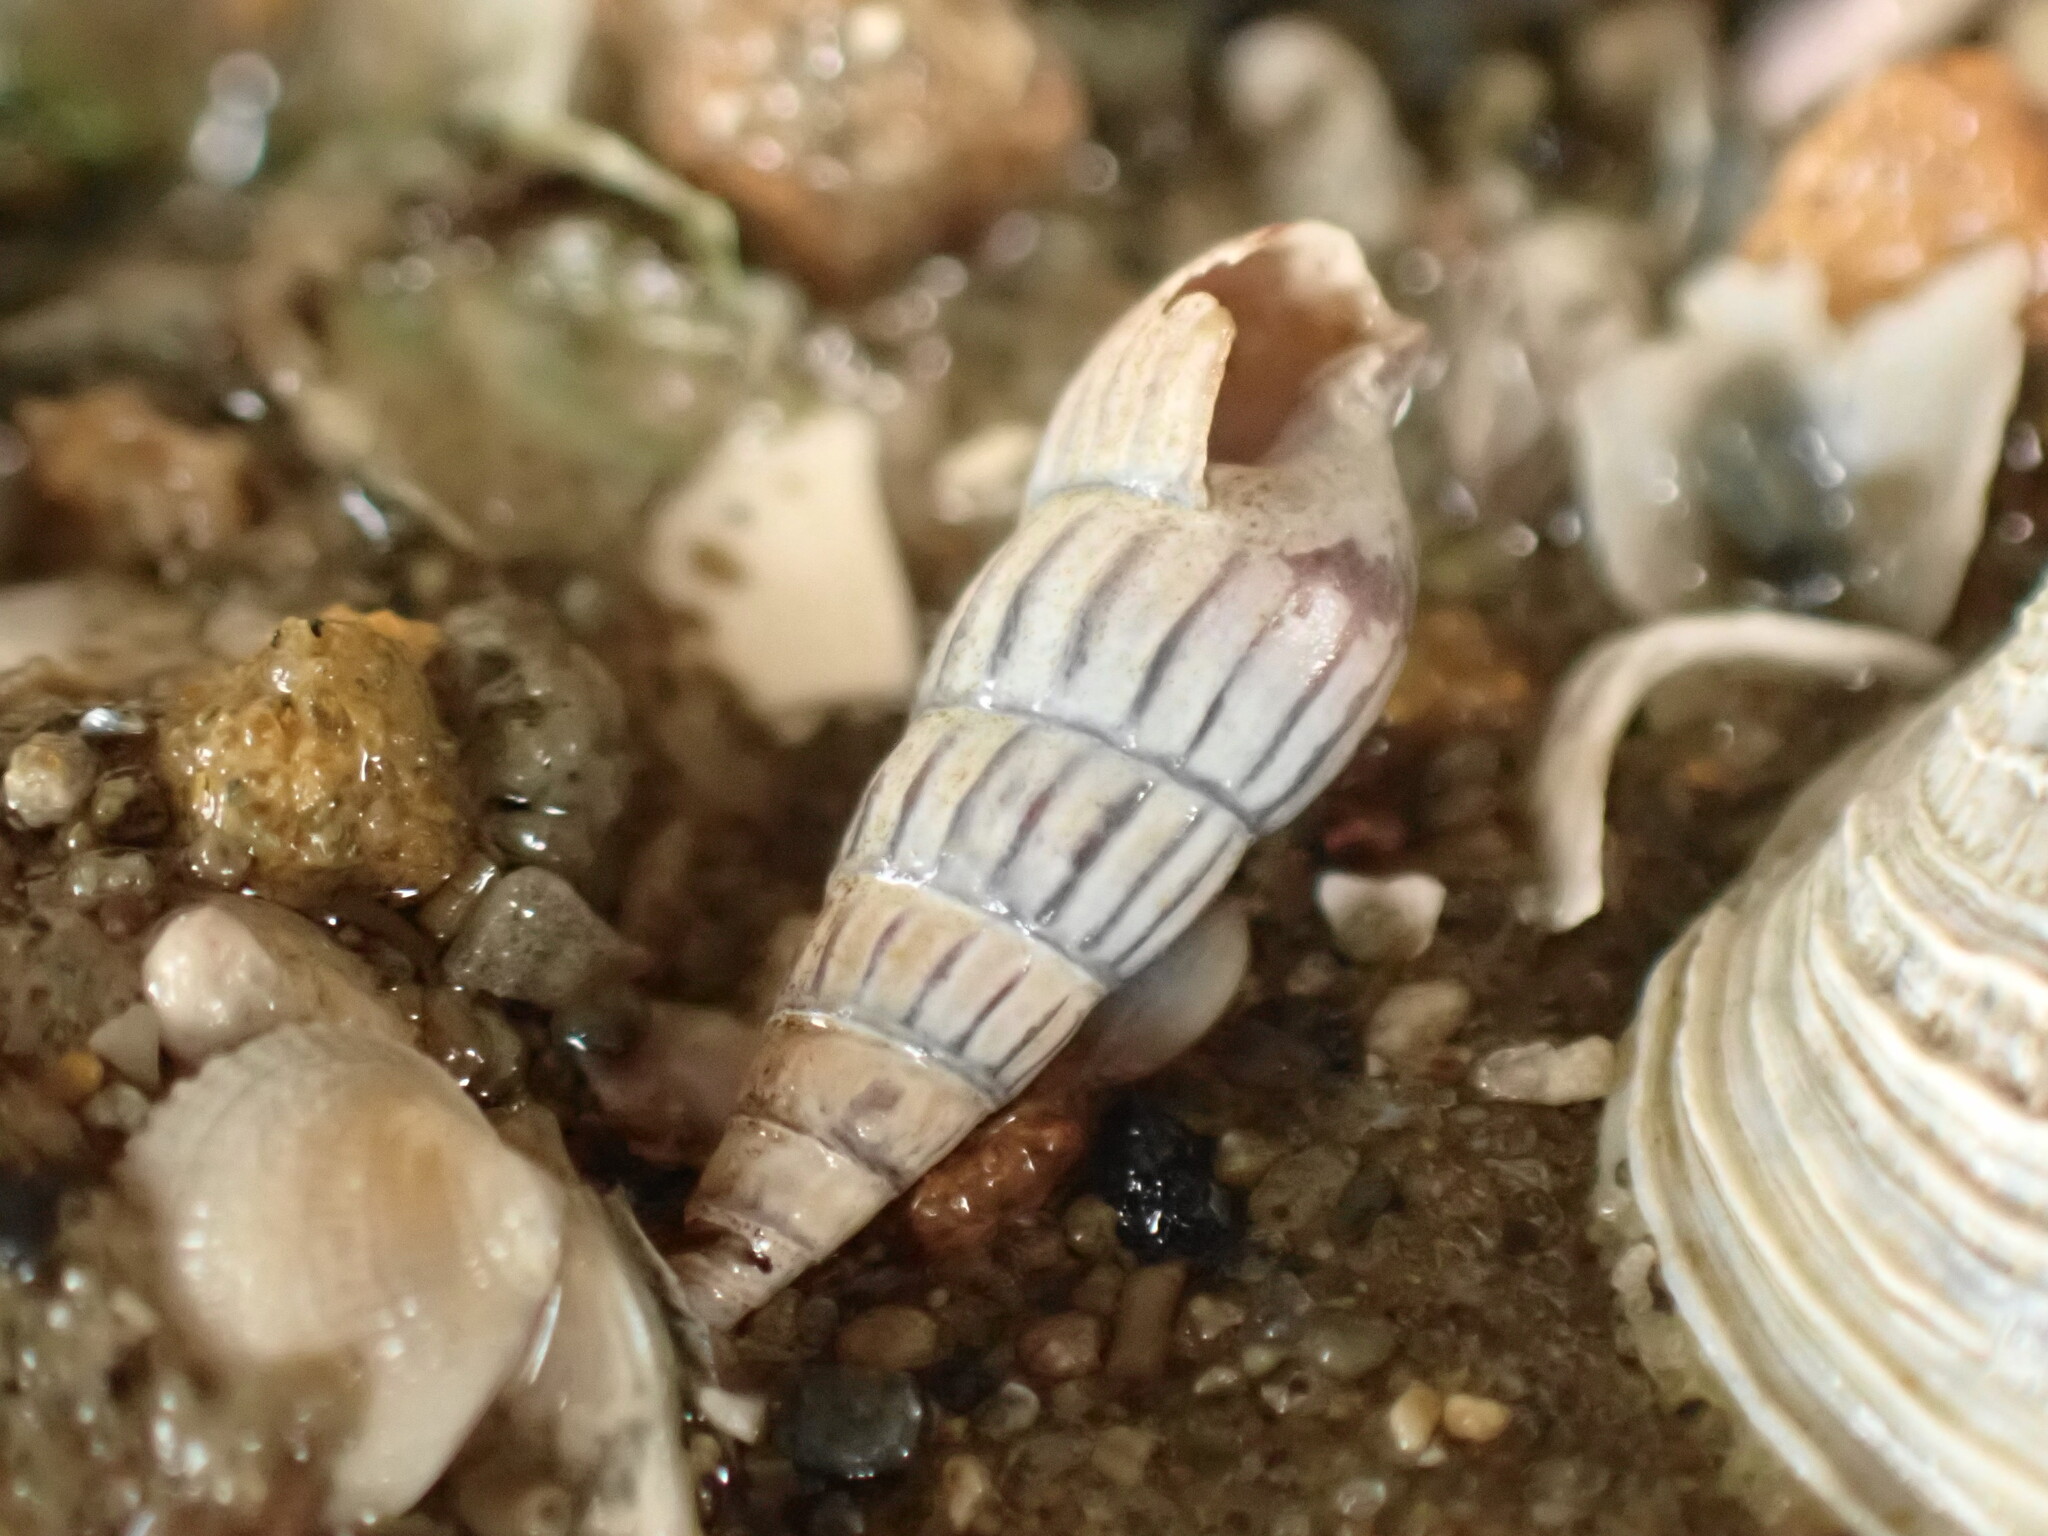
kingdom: Animalia
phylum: Mollusca
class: Gastropoda
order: Neogastropoda
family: Terebridae
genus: Duplicaria
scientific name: Duplicaria tristis
